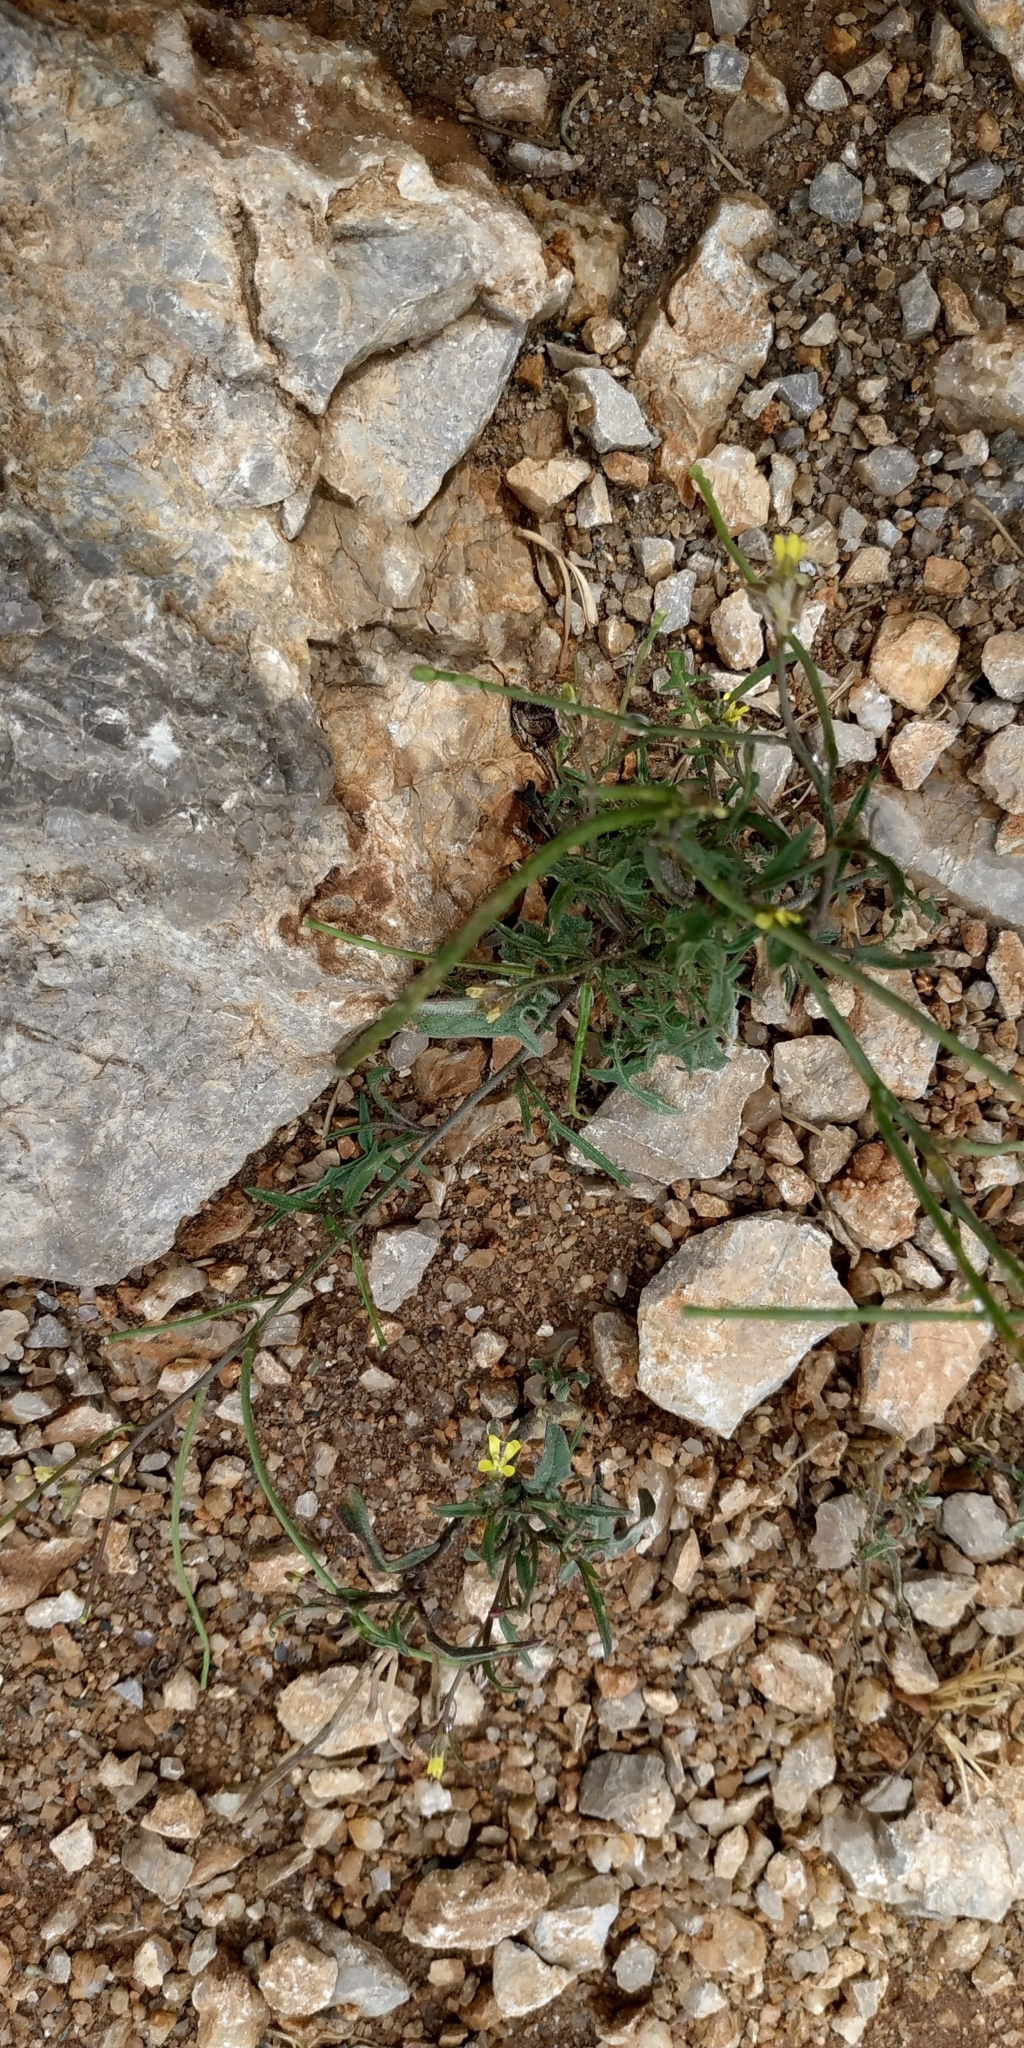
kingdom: Plantae
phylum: Tracheophyta
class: Magnoliopsida
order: Brassicales
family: Brassicaceae
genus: Diplotaxis
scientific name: Diplotaxis tenuifolia
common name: Perennial wall-rocket
